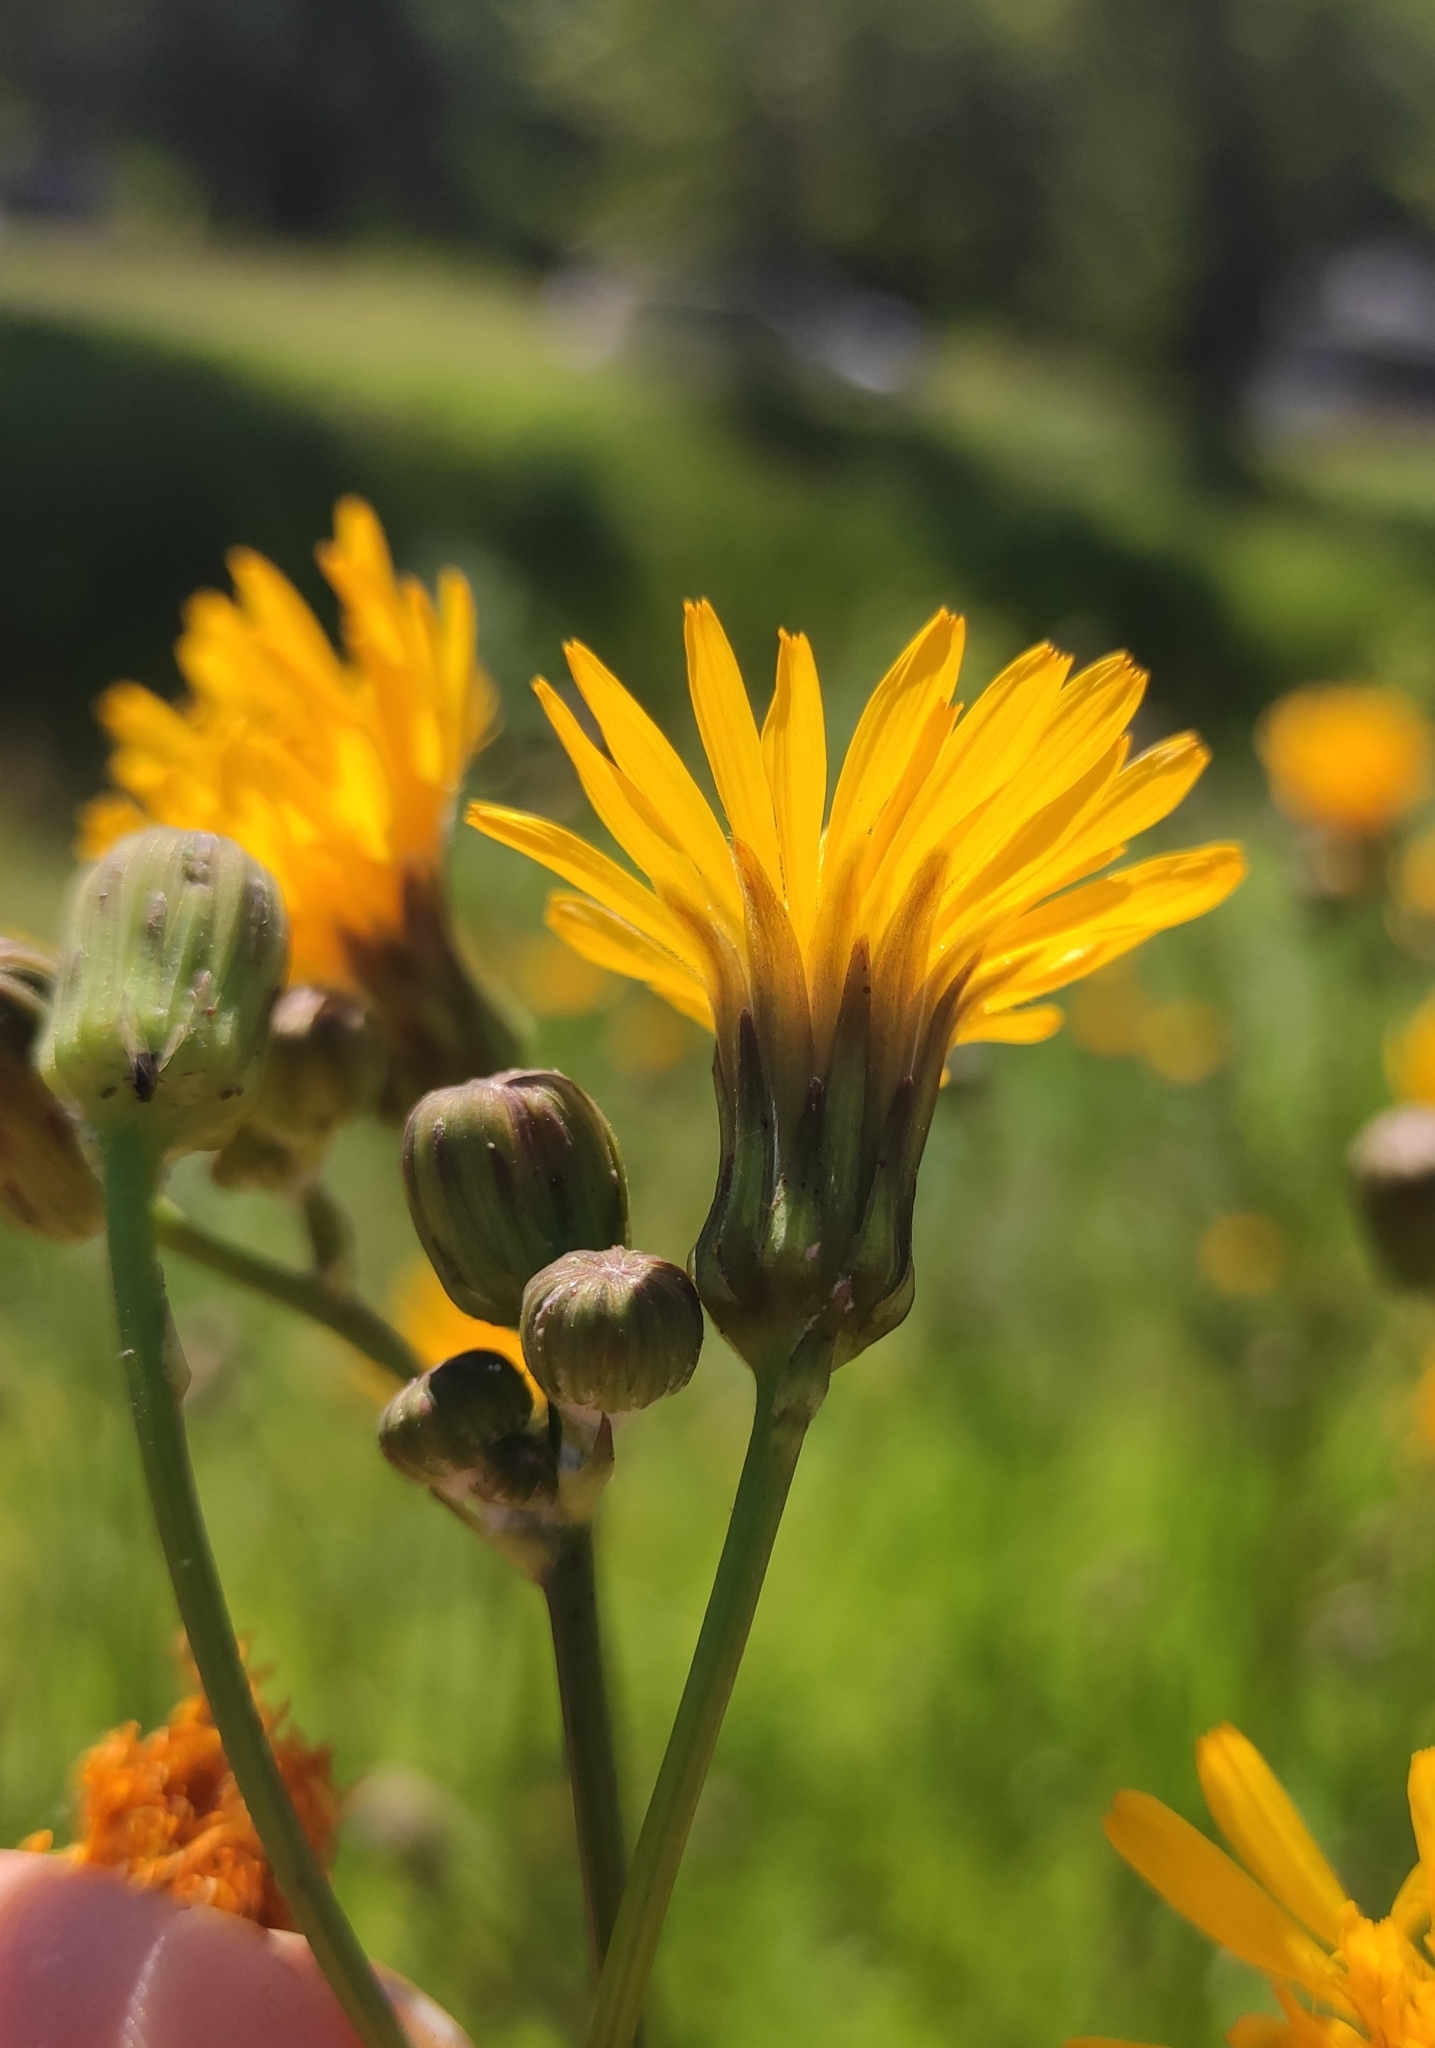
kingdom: Plantae
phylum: Tracheophyta
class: Magnoliopsida
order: Asterales
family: Asteraceae
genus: Sonchus
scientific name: Sonchus arvensis
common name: Perennial sow-thistle
